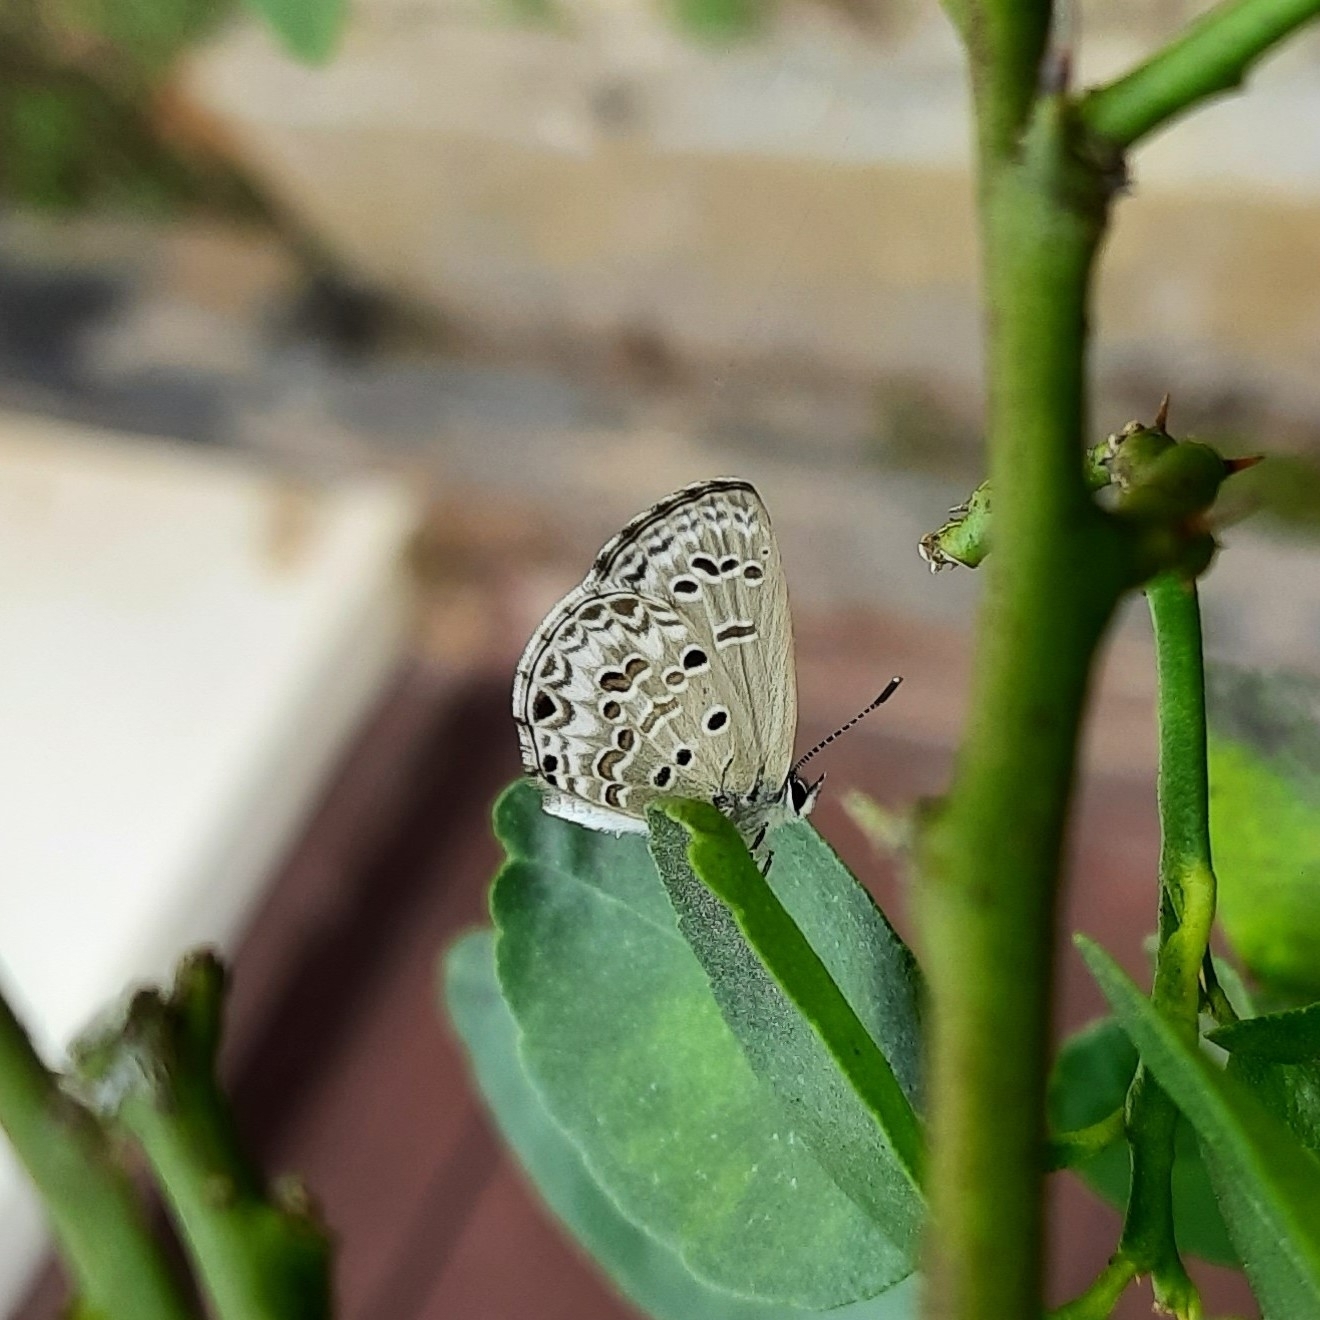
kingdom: Animalia
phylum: Arthropoda
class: Insecta
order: Lepidoptera
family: Lycaenidae
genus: Chilades
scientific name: Chilades laius
